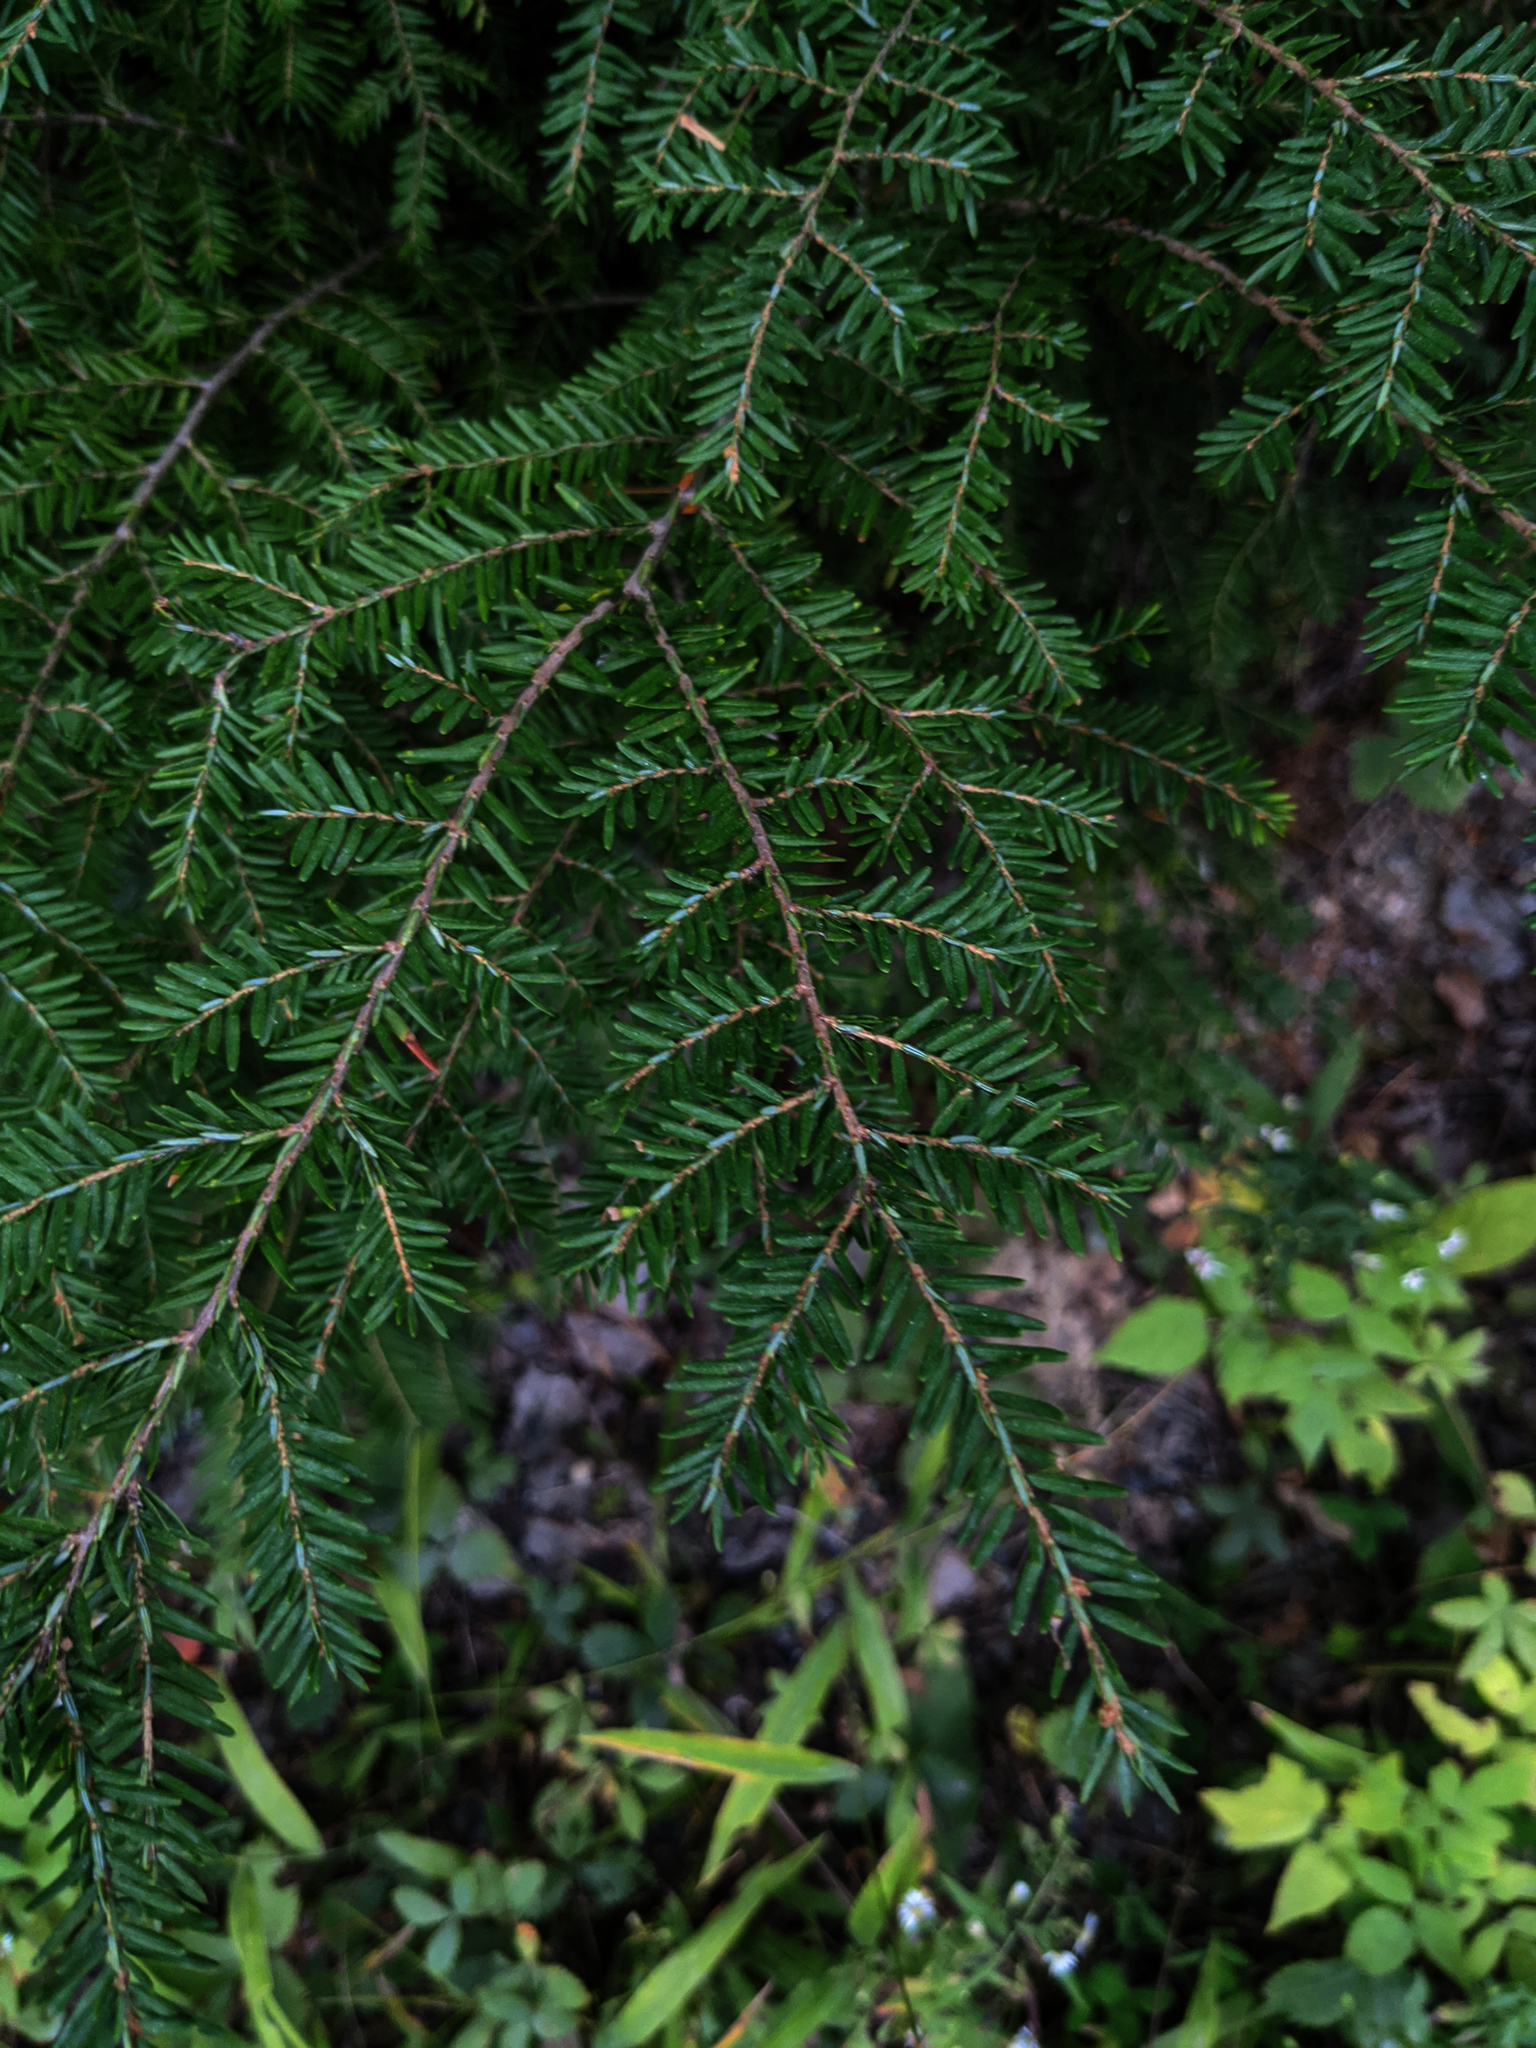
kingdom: Plantae
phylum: Tracheophyta
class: Pinopsida
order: Pinales
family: Pinaceae
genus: Tsuga
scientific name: Tsuga canadensis
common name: Eastern hemlock
